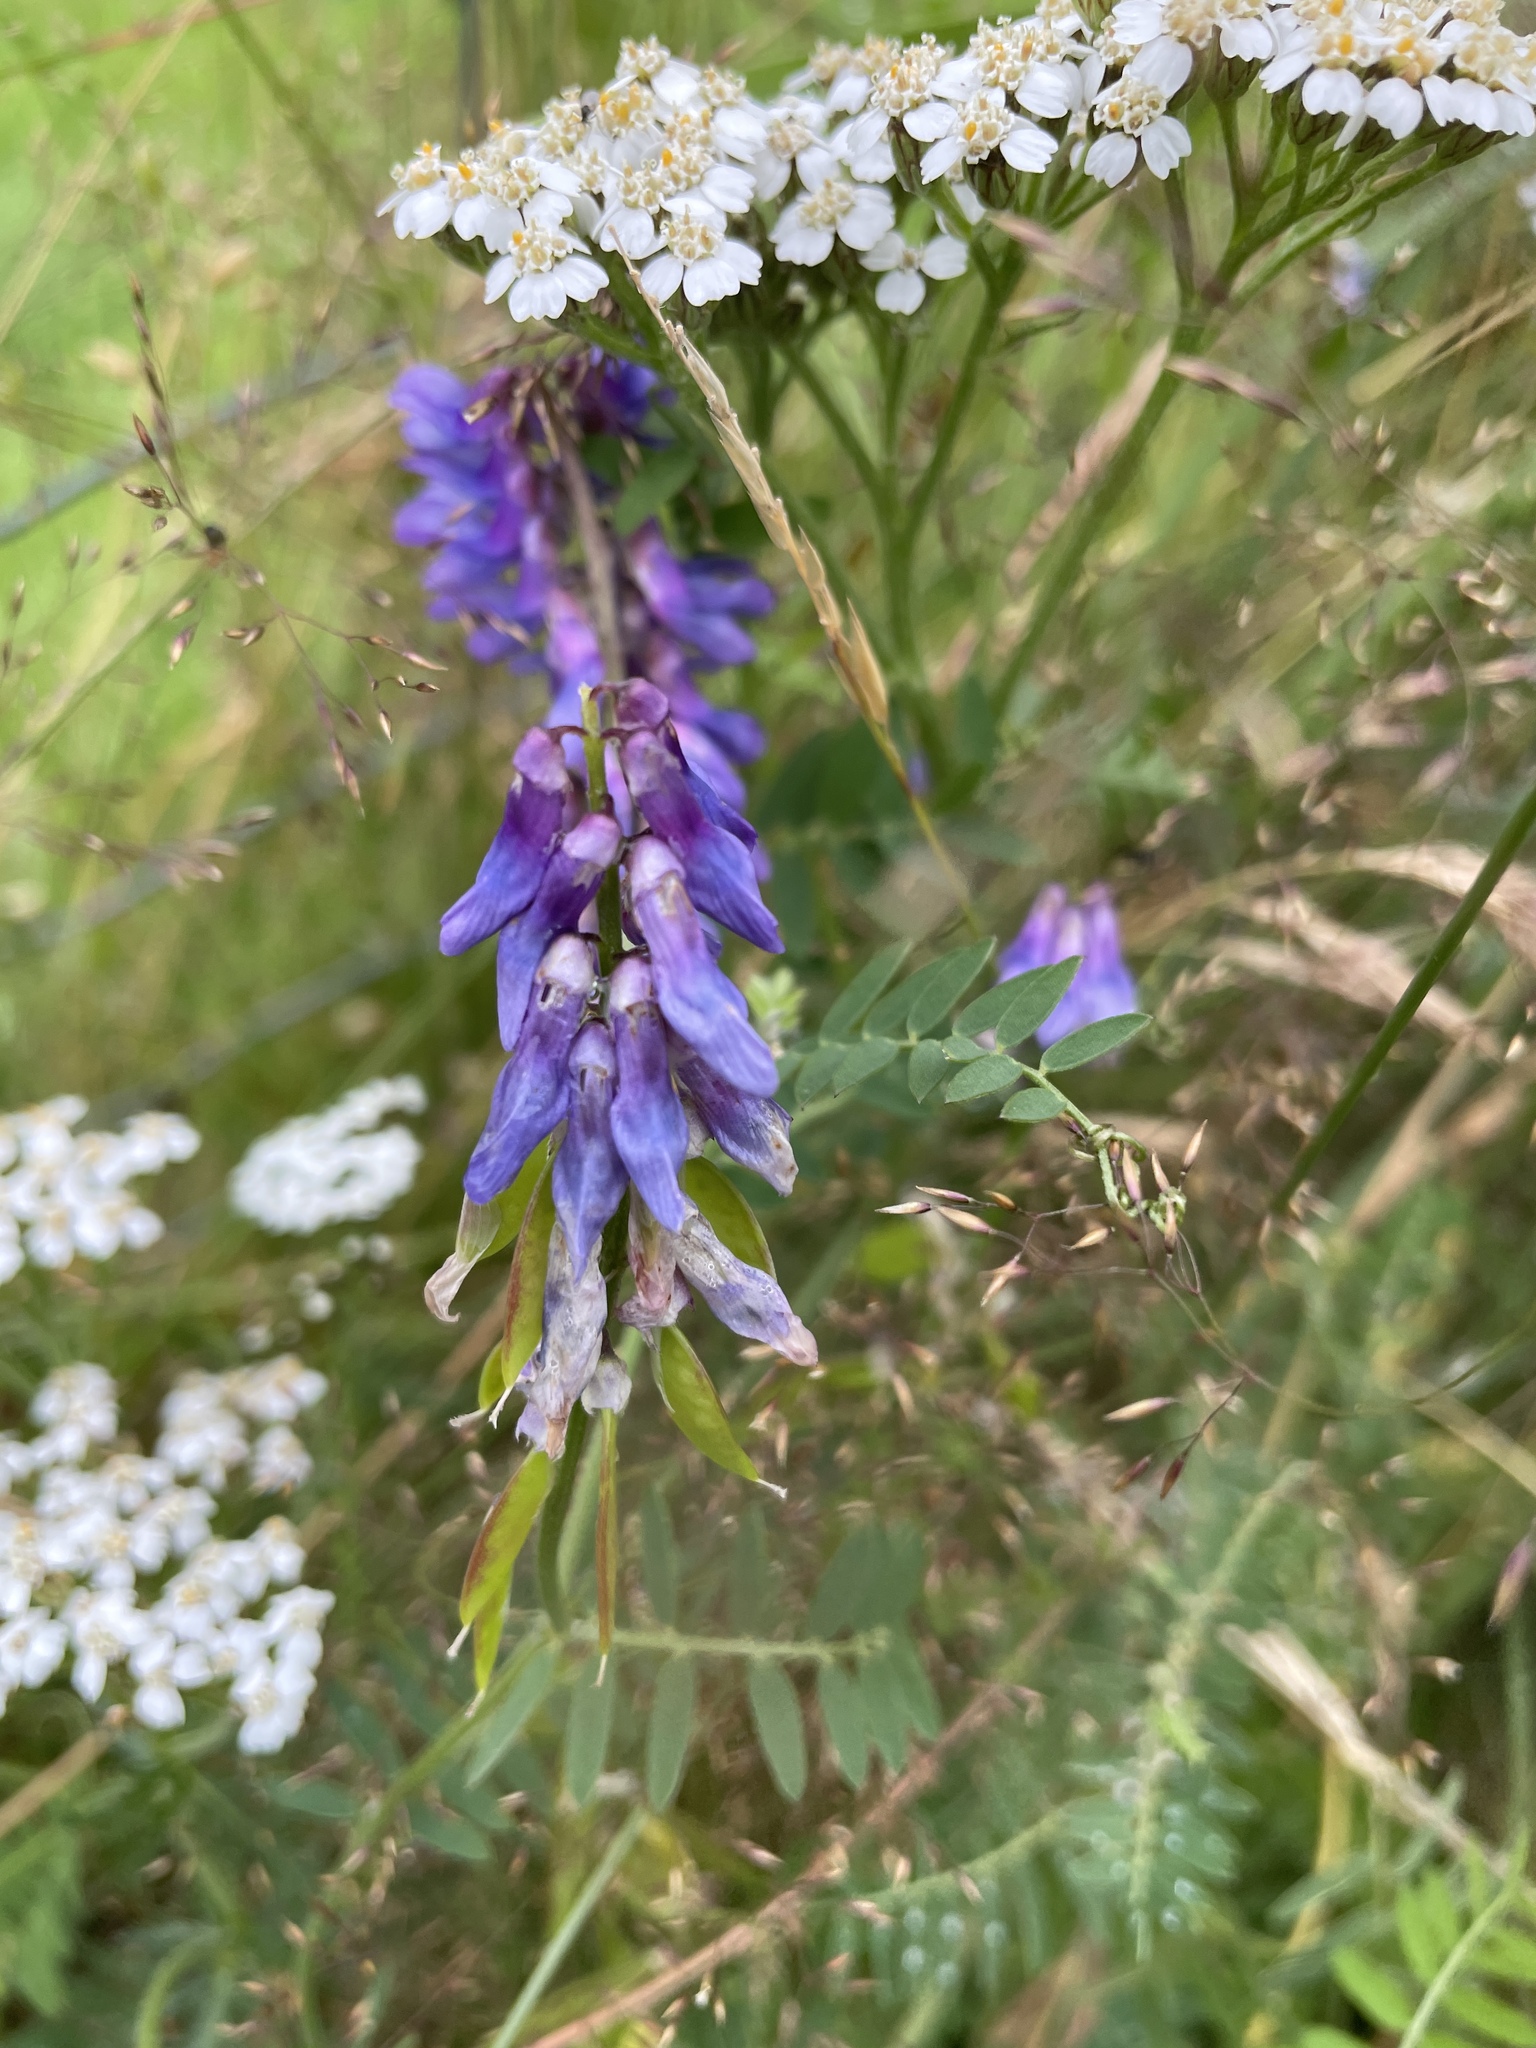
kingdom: Plantae
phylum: Tracheophyta
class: Magnoliopsida
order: Fabales
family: Fabaceae
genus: Vicia
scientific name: Vicia cracca
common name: Bird vetch
